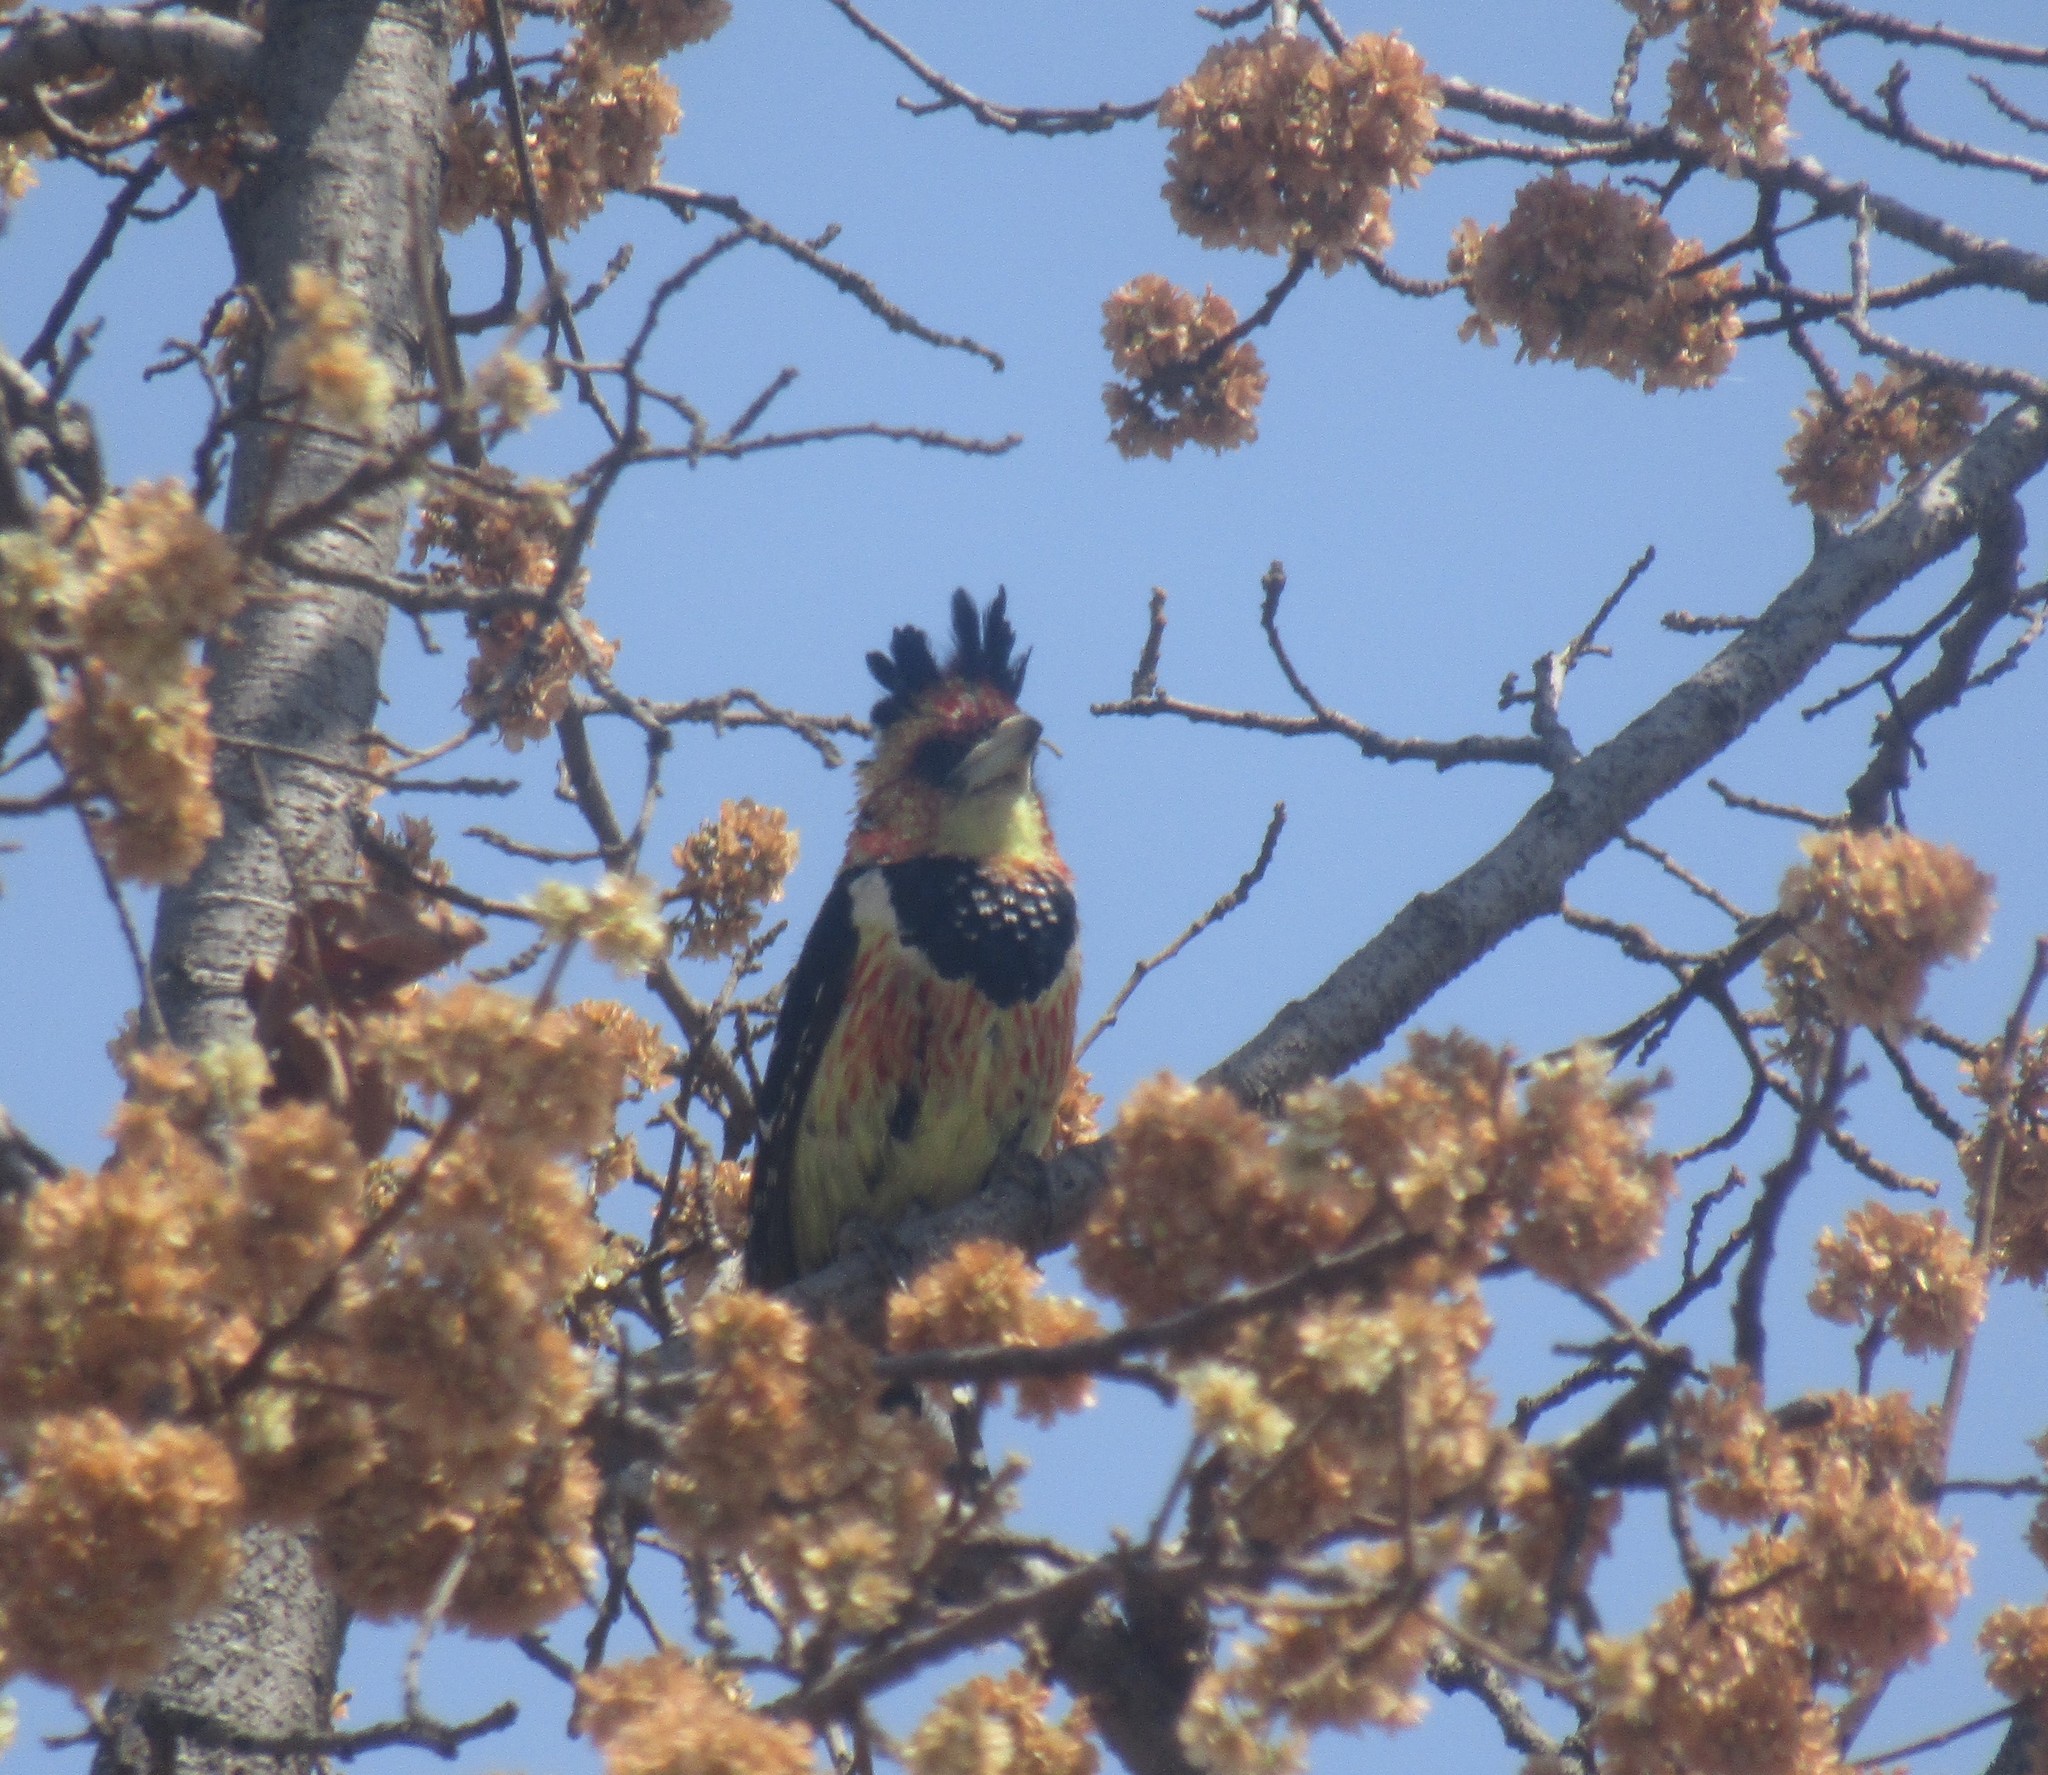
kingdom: Animalia
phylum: Chordata
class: Aves
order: Piciformes
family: Lybiidae
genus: Trachyphonus
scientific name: Trachyphonus vaillantii
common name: Crested barbet
